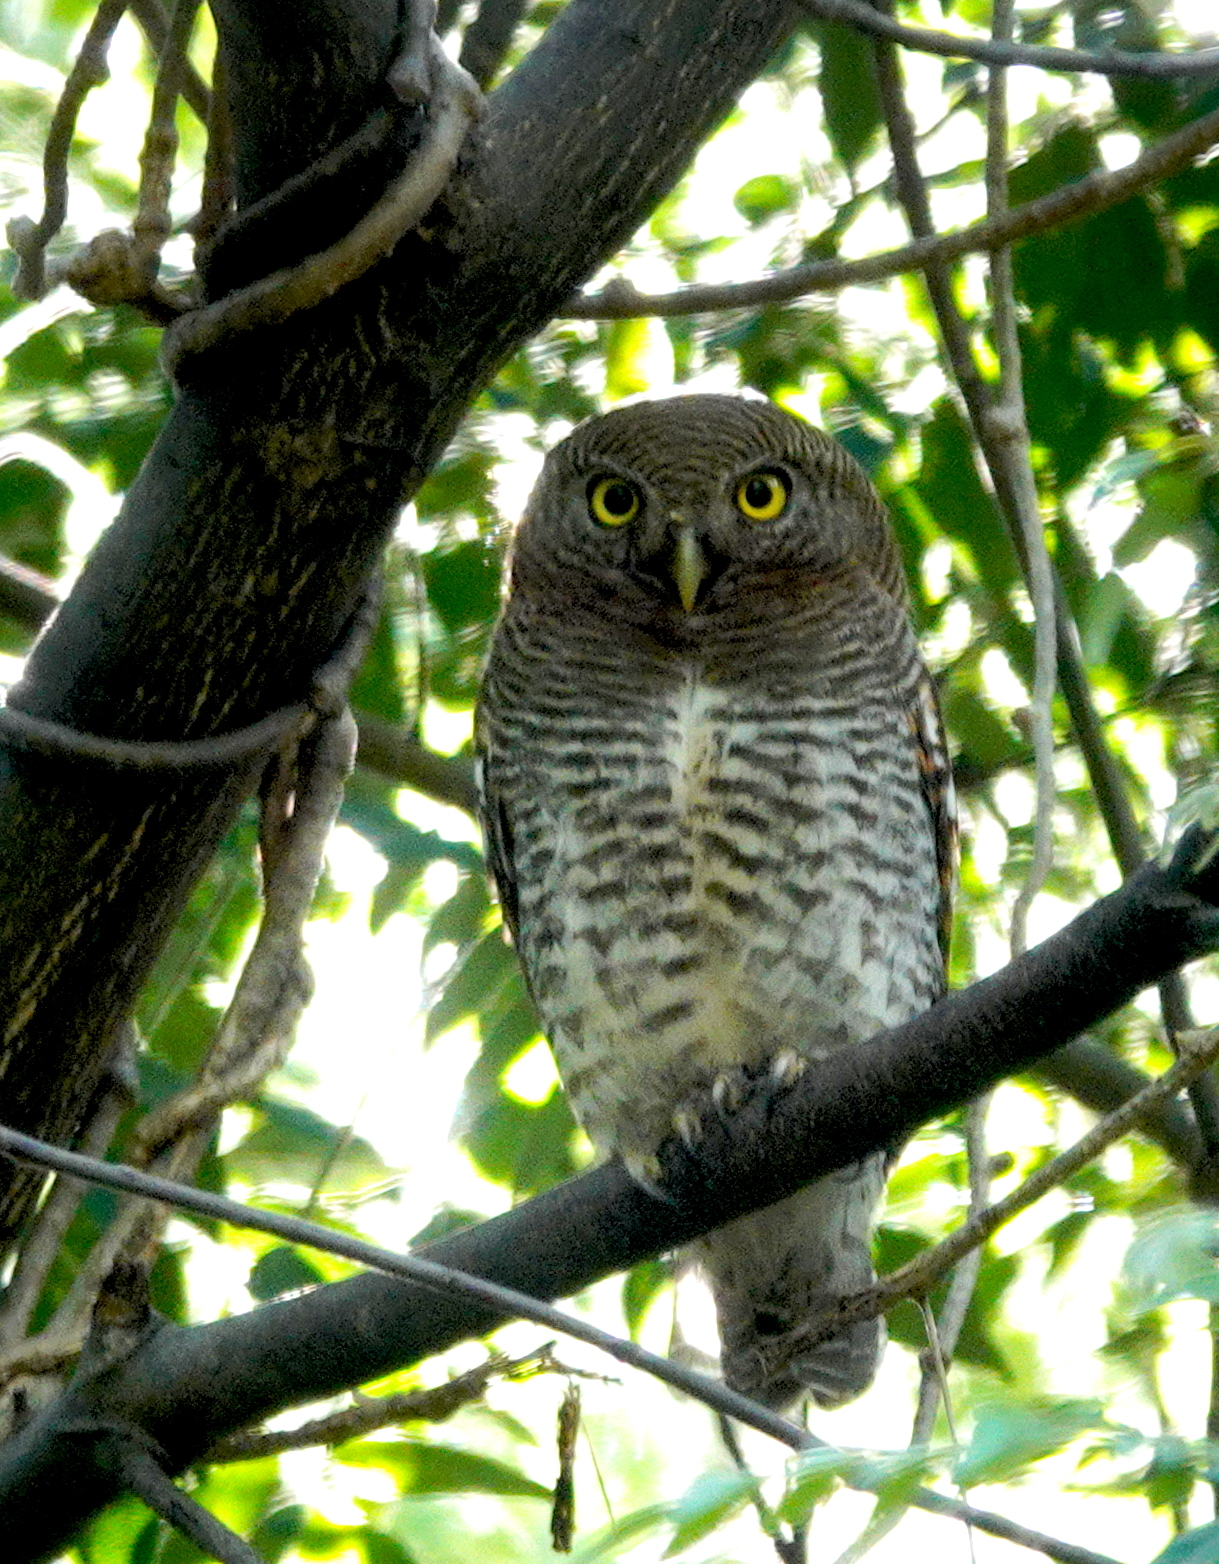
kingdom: Animalia
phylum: Chordata
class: Aves
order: Strigiformes
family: Strigidae
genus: Glaucidium
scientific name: Glaucidium radiatum
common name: Jungle owlet
